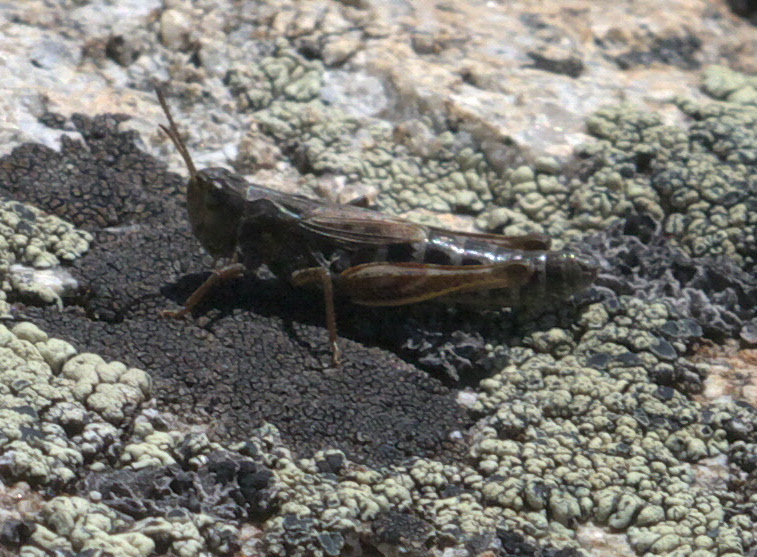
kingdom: Animalia
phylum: Arthropoda
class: Insecta
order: Orthoptera
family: Acrididae
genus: Aeropedellus
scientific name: Aeropedellus clavatus
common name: Clubhorned grasshopper
